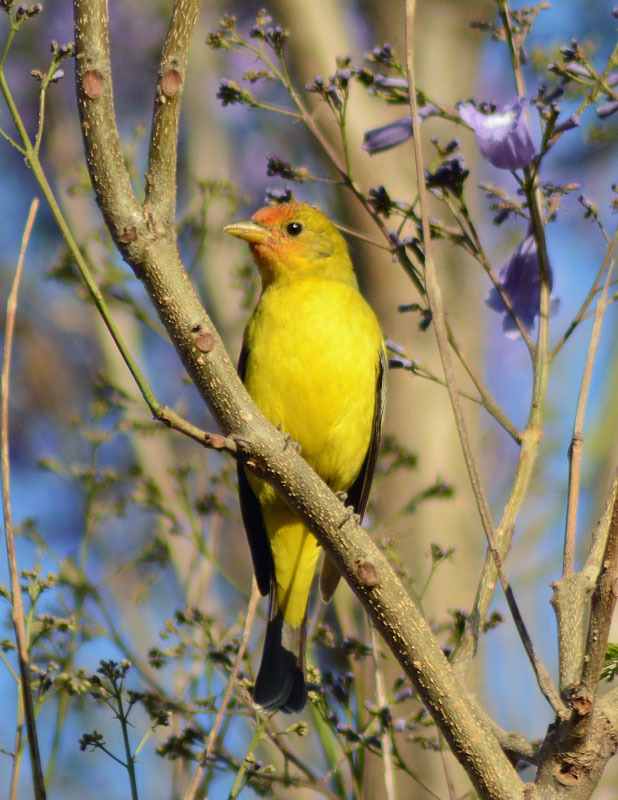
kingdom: Animalia
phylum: Chordata
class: Aves
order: Passeriformes
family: Cardinalidae
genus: Piranga
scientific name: Piranga ludoviciana
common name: Western tanager
